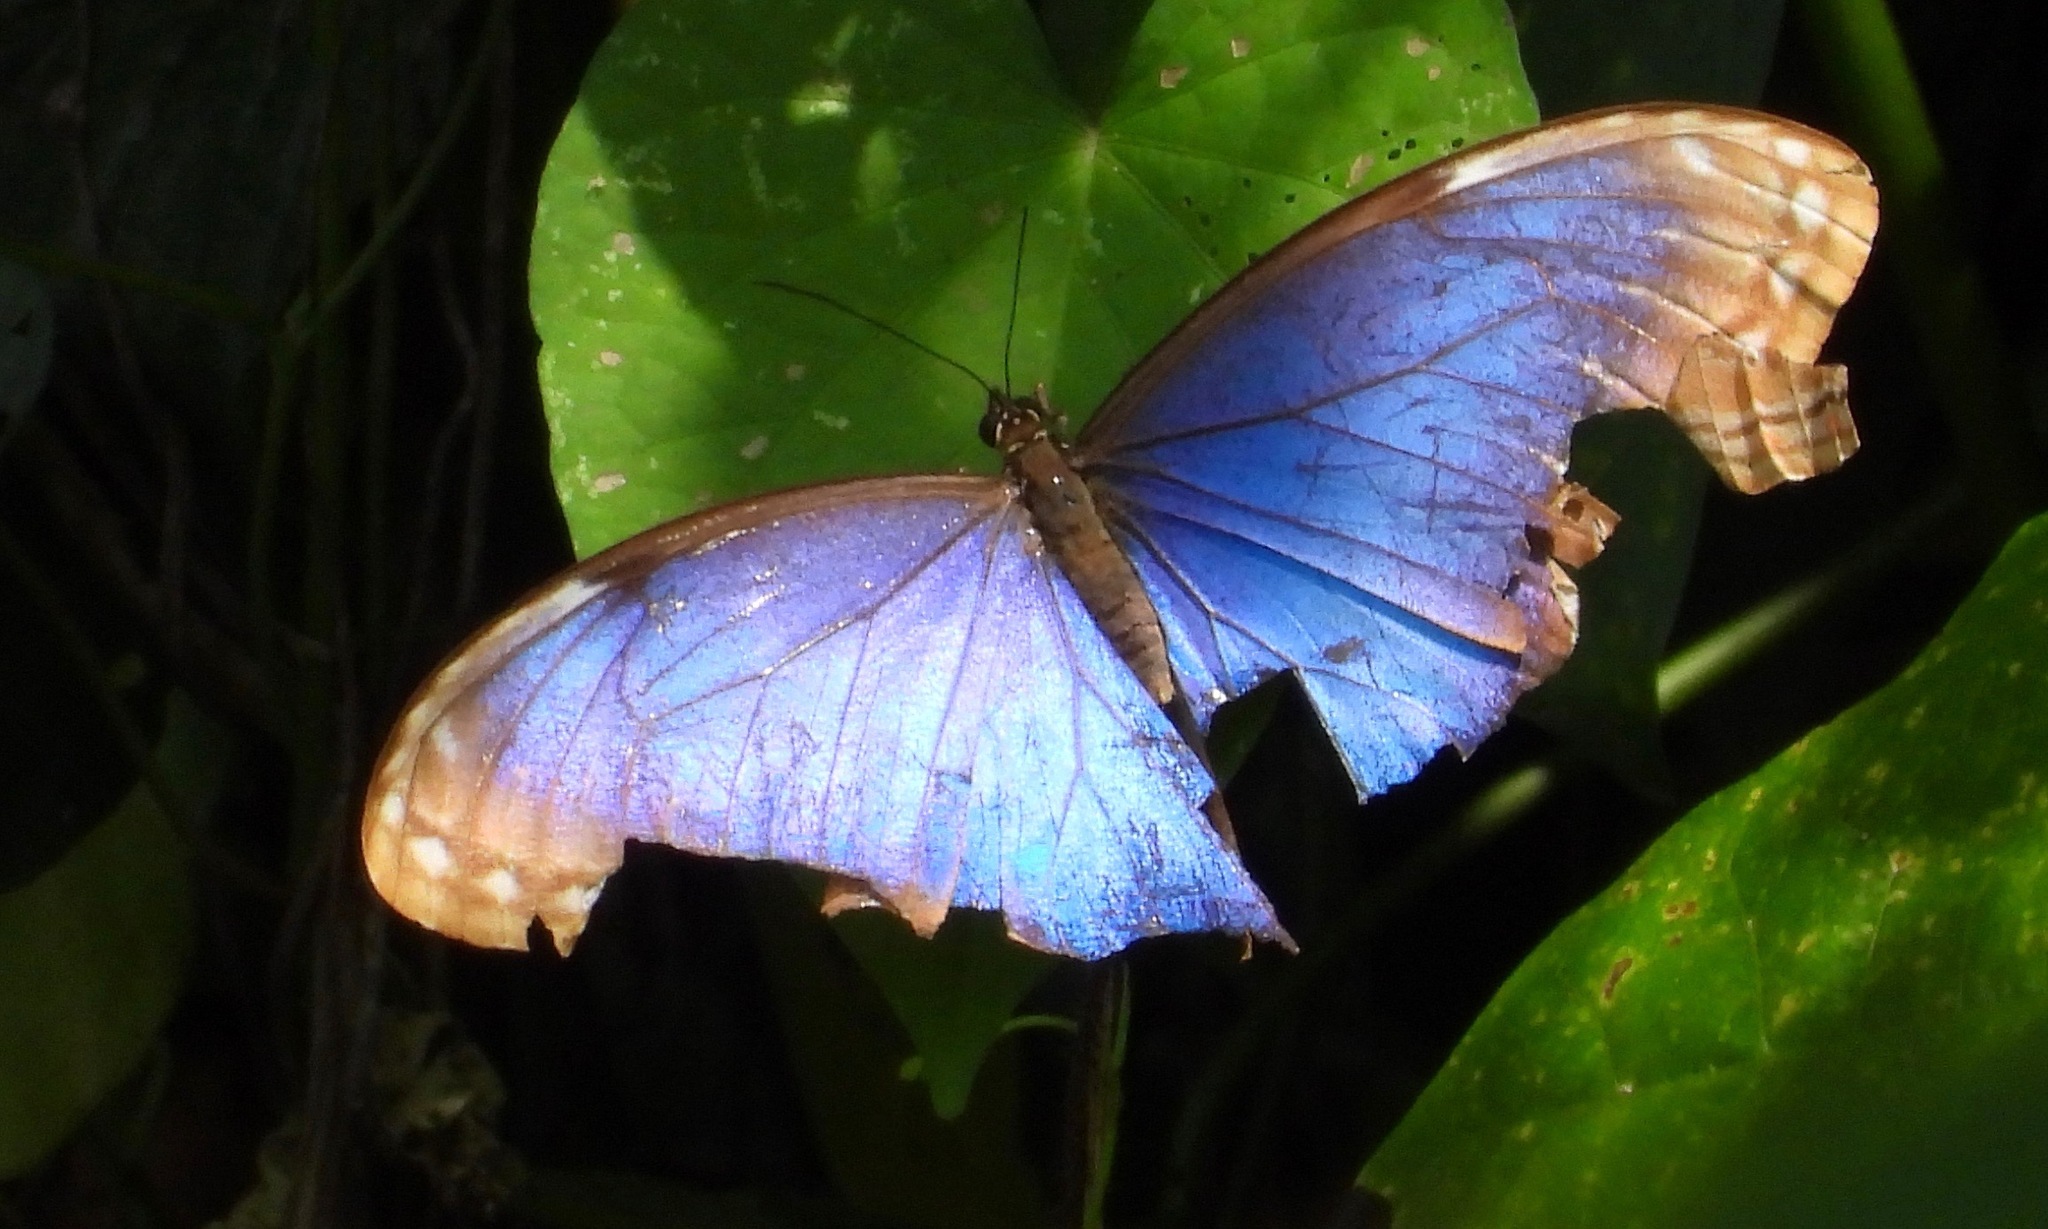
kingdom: Animalia
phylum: Arthropoda
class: Insecta
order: Lepidoptera
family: Nymphalidae
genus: Morpho
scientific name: Morpho helenor
